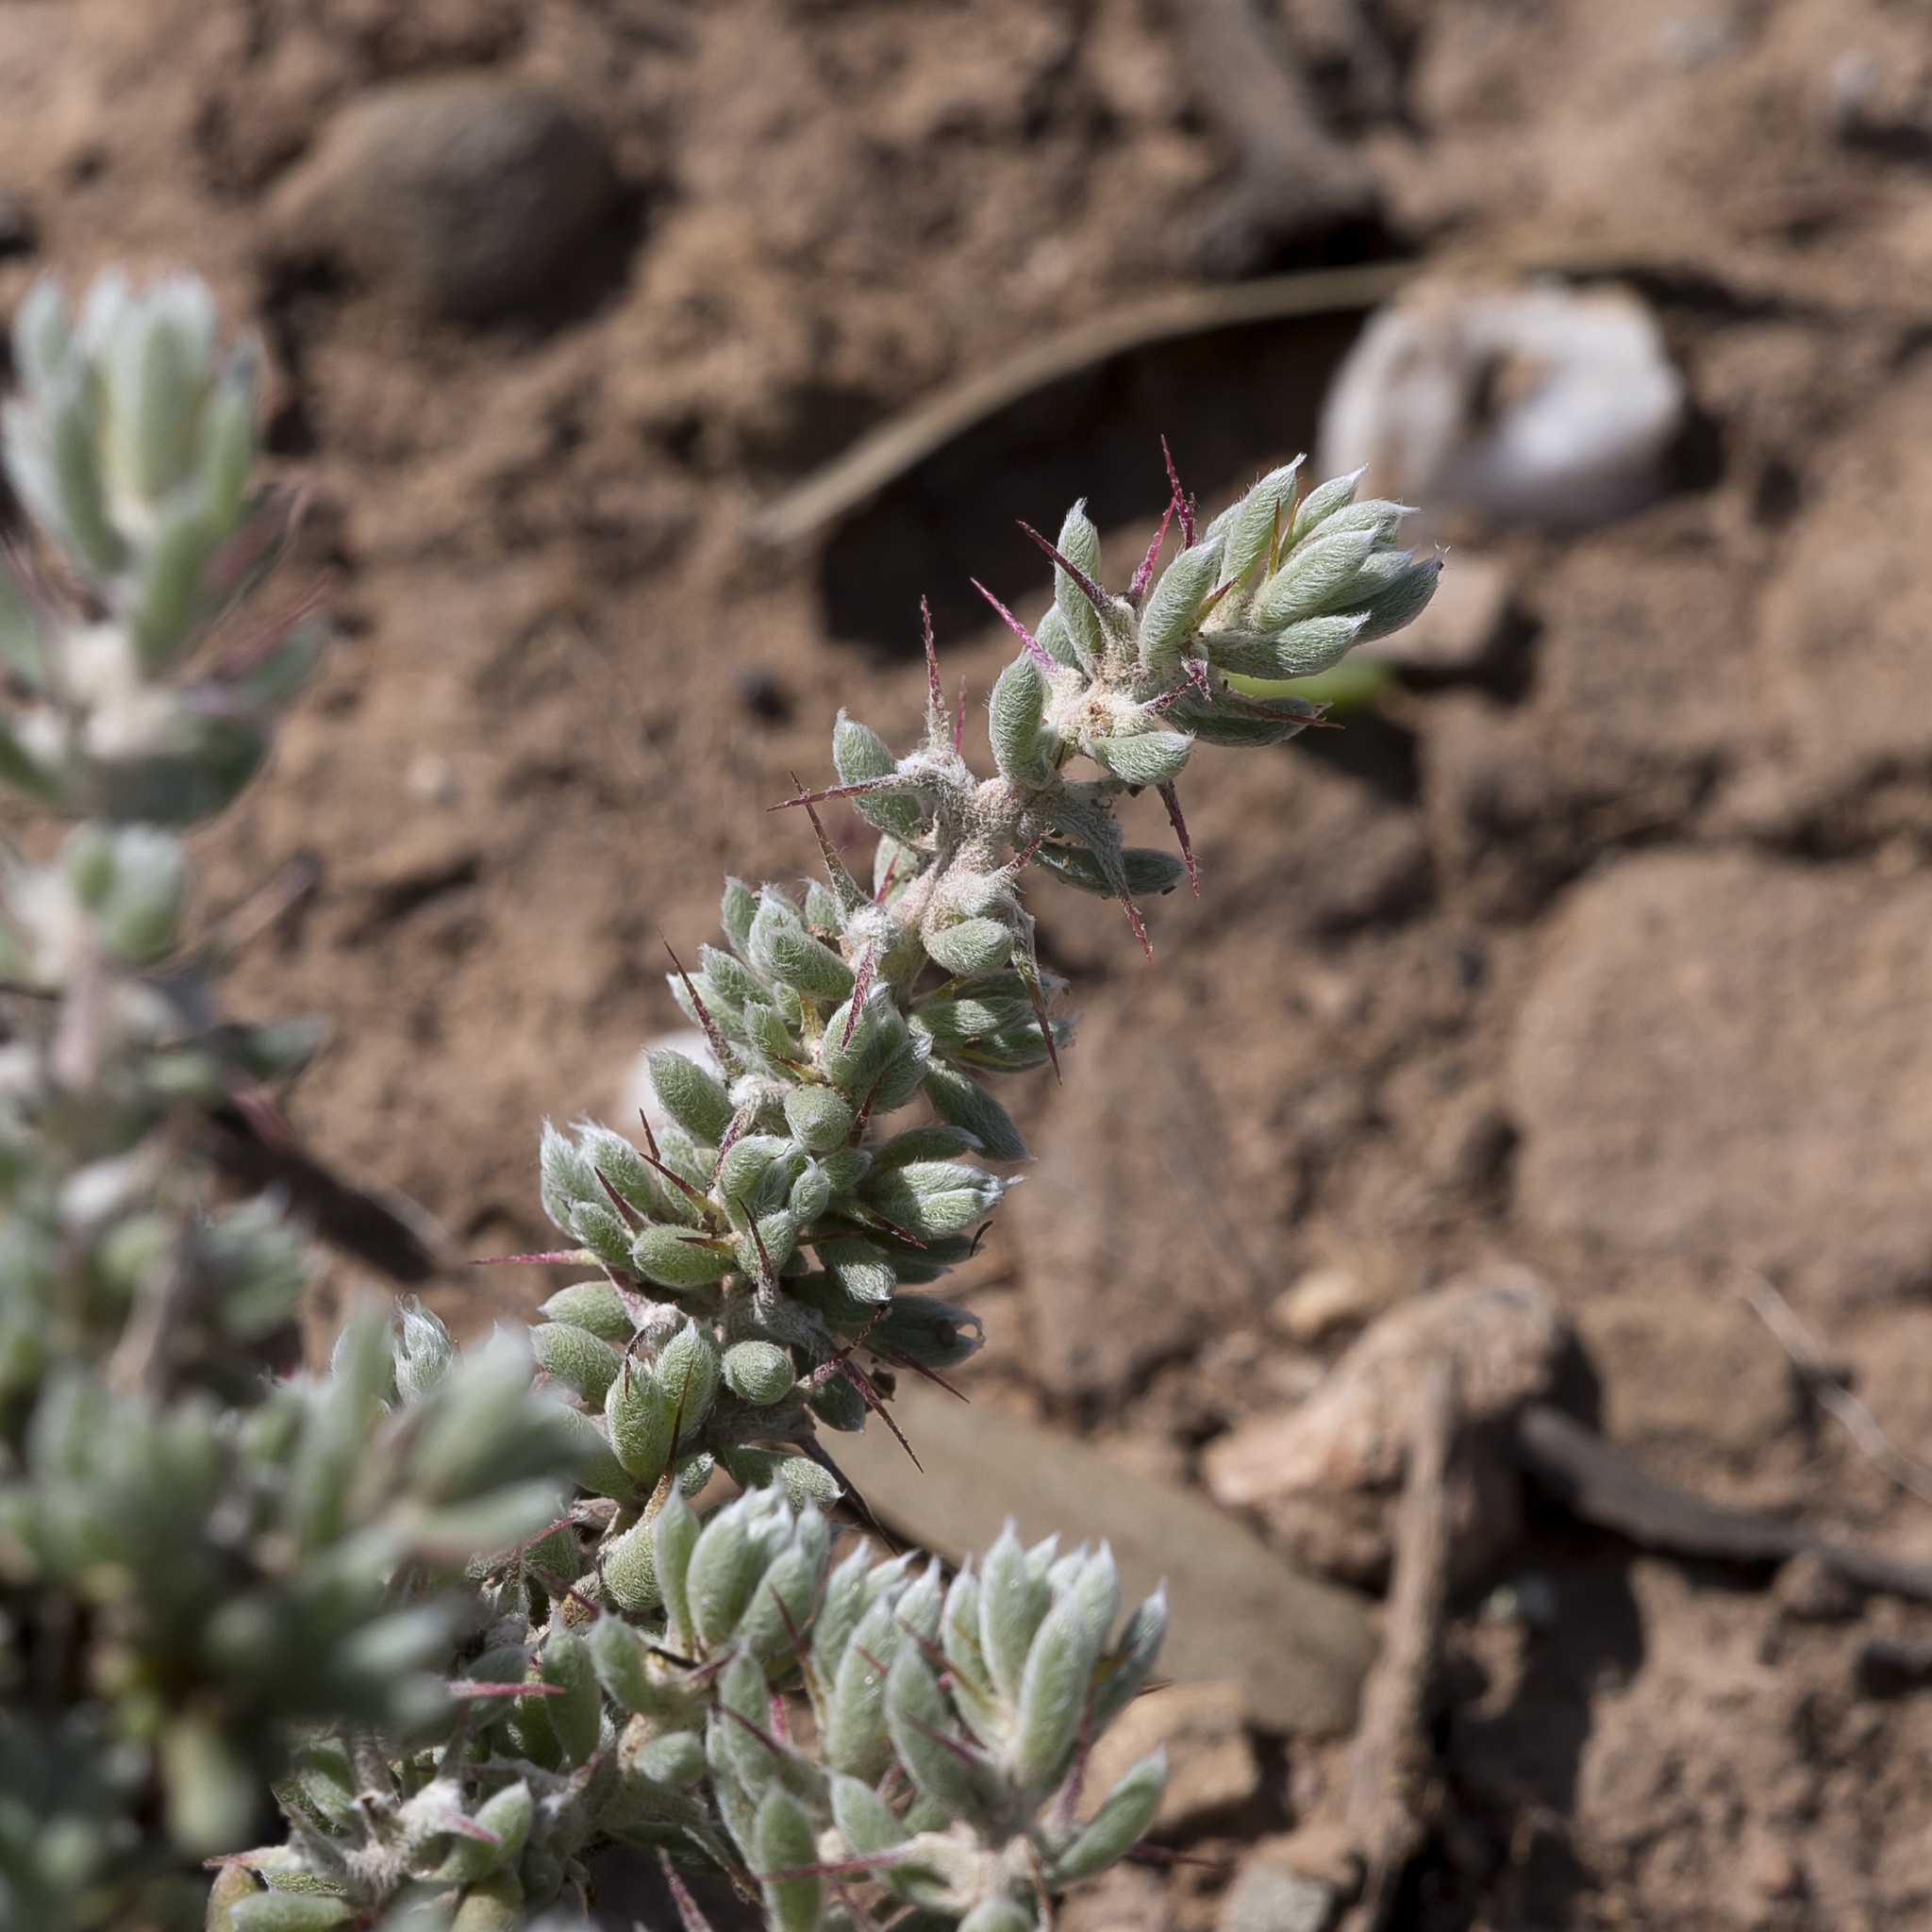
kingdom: Plantae
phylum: Tracheophyta
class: Magnoliopsida
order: Caryophyllales
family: Amaranthaceae
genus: Sclerolaena
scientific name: Sclerolaena obliquicuspis
